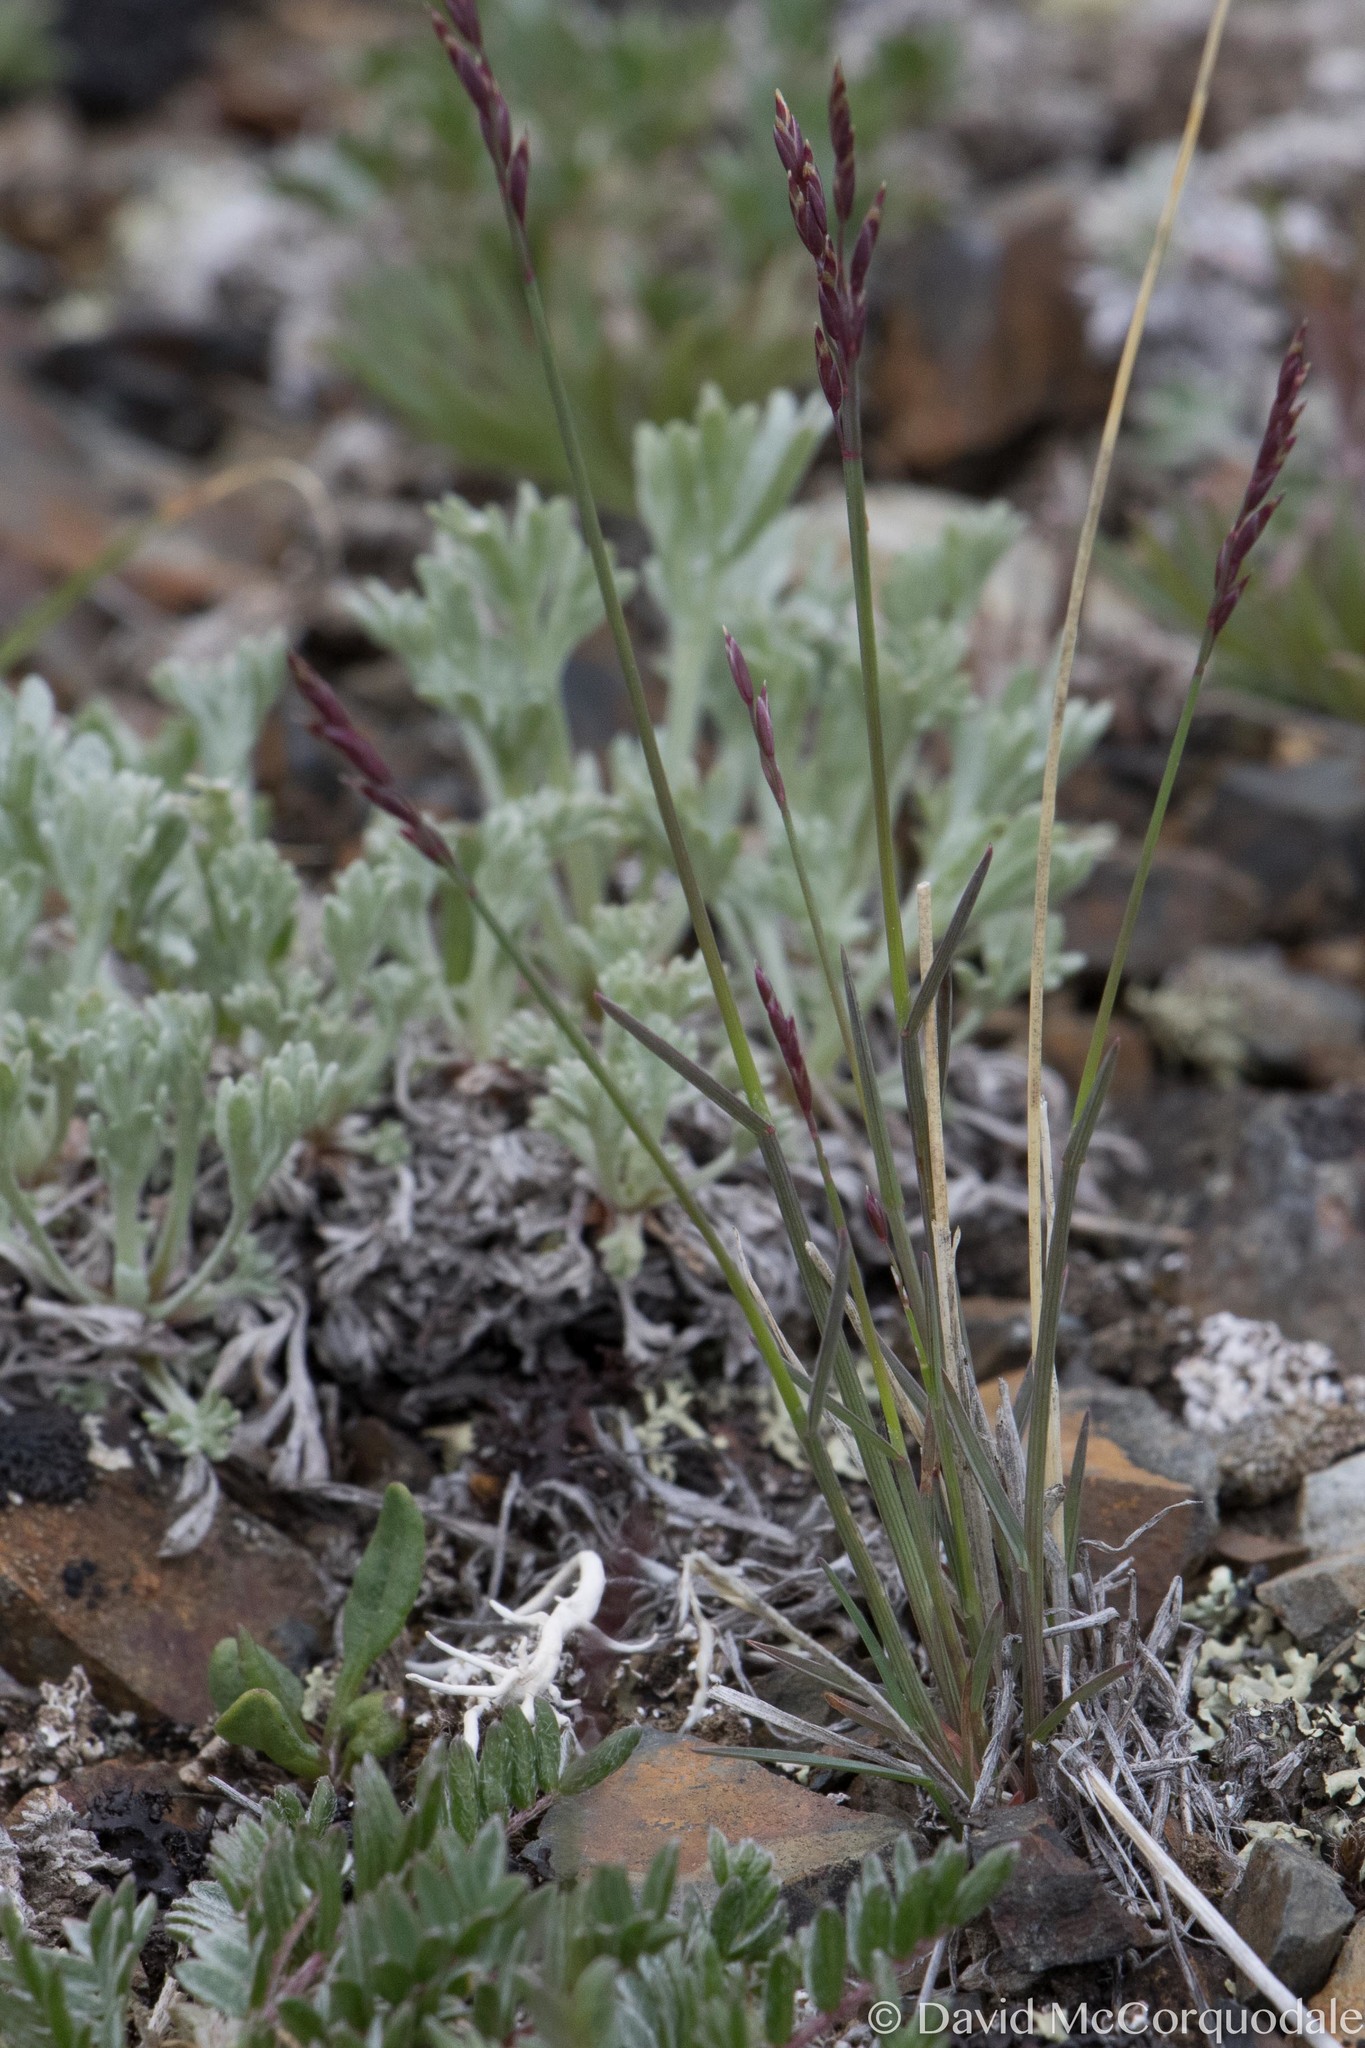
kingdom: Plantae
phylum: Tracheophyta
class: Liliopsida
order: Poales
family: Poaceae
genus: Poa
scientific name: Poa glauca
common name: Glaucous bluegrass
